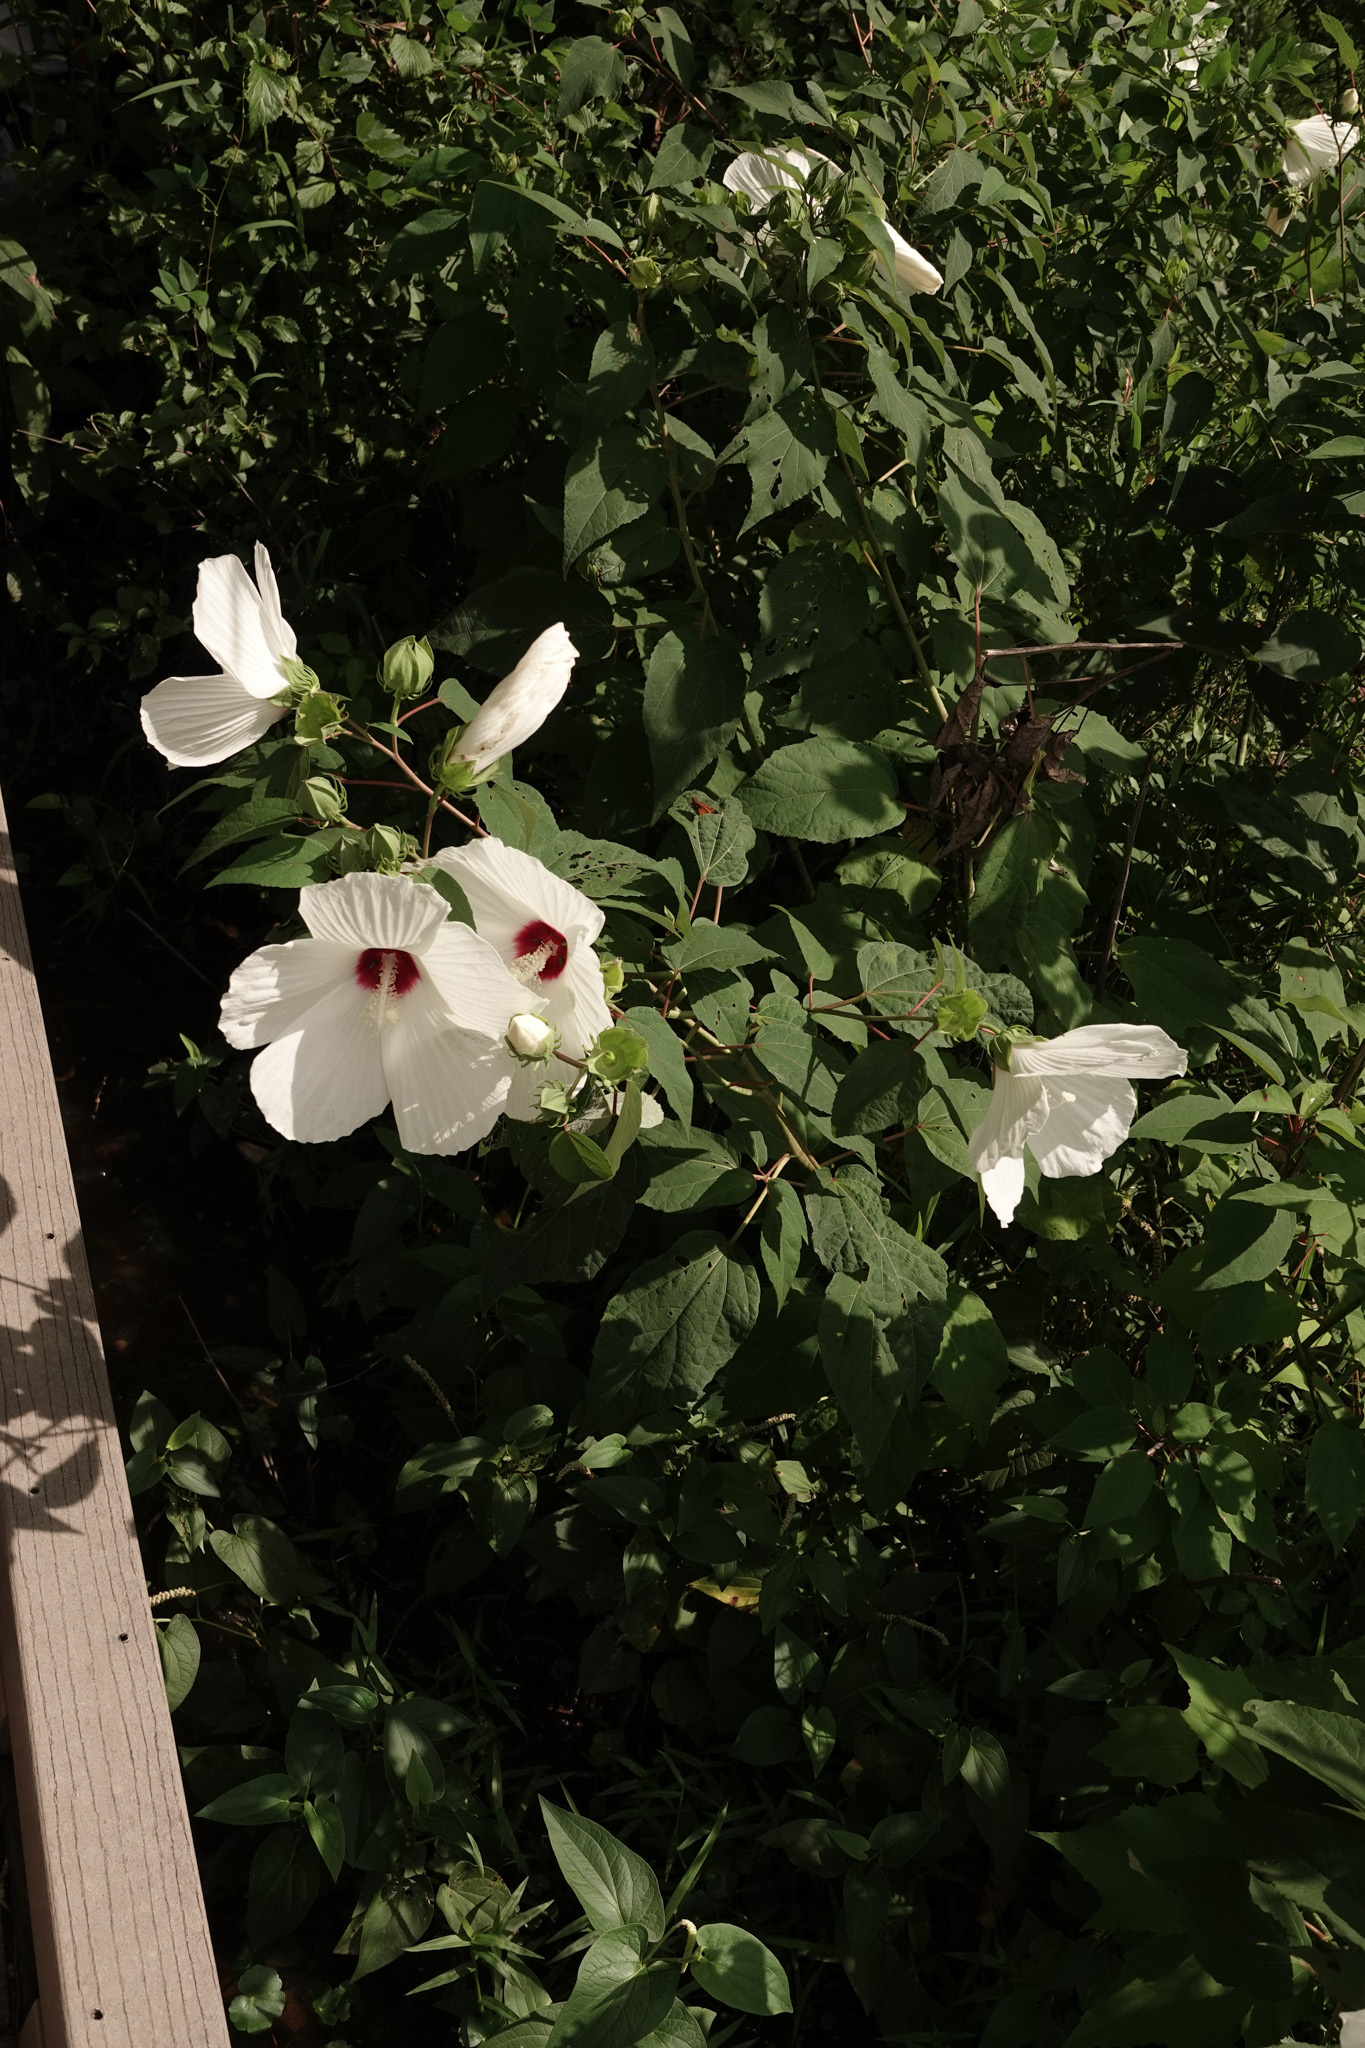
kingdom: Plantae
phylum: Tracheophyta
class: Magnoliopsida
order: Malvales
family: Malvaceae
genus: Hibiscus
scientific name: Hibiscus moscheutos
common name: Common rose-mallow
